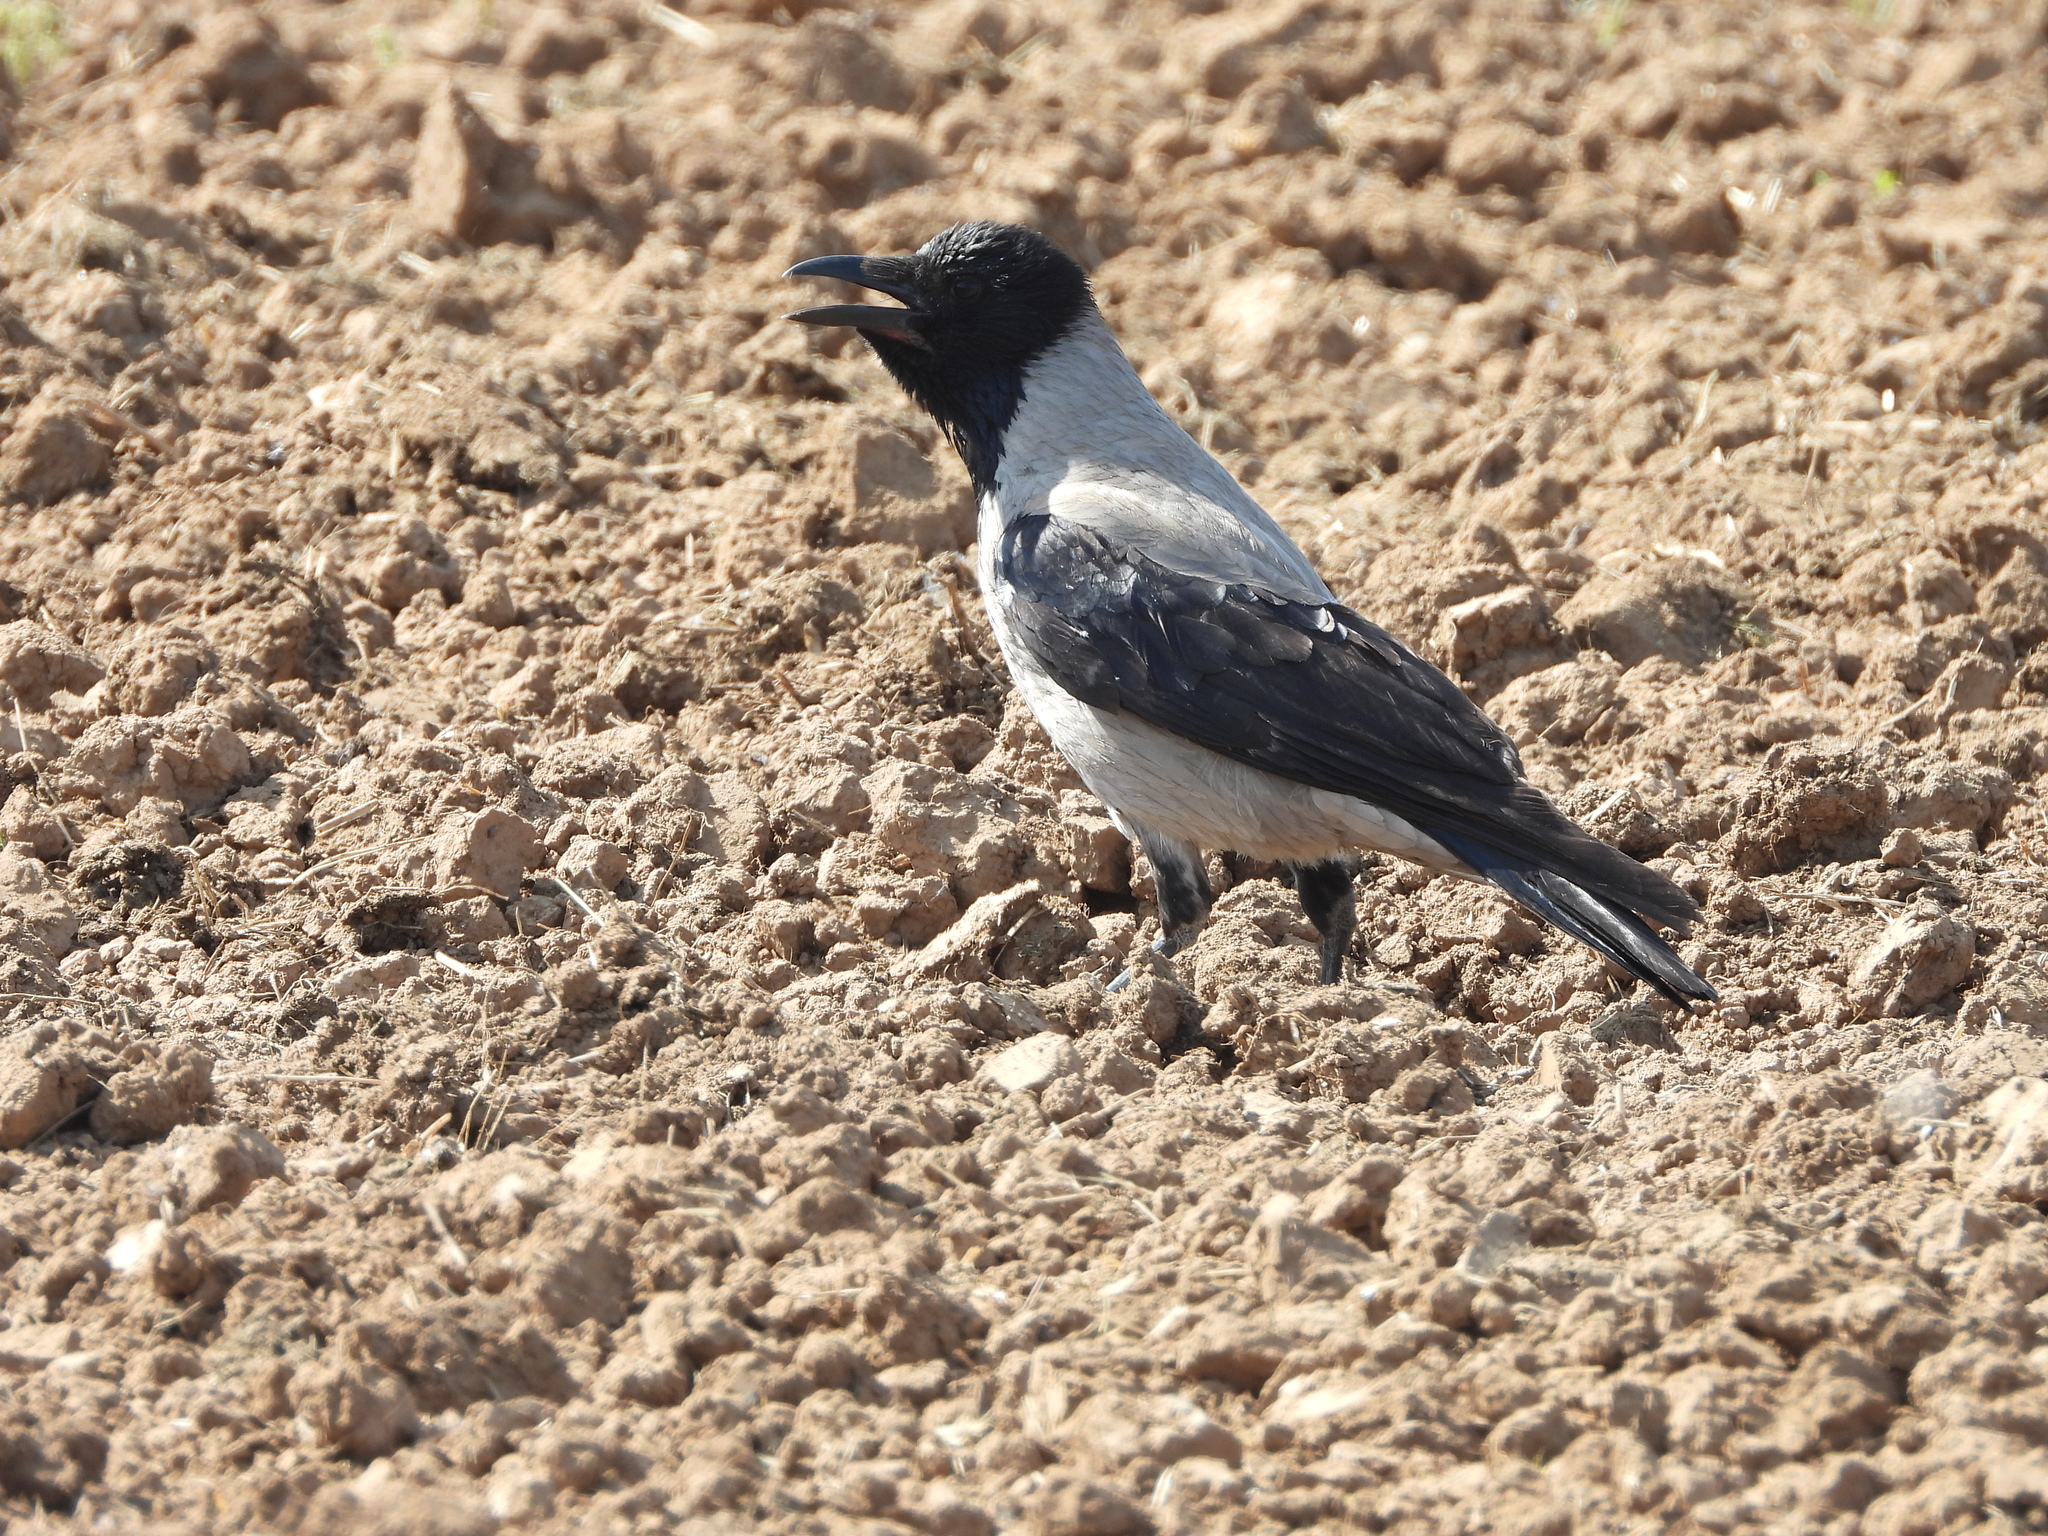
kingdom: Animalia
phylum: Chordata
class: Aves
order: Passeriformes
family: Corvidae
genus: Corvus
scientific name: Corvus cornix
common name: Hooded crow
